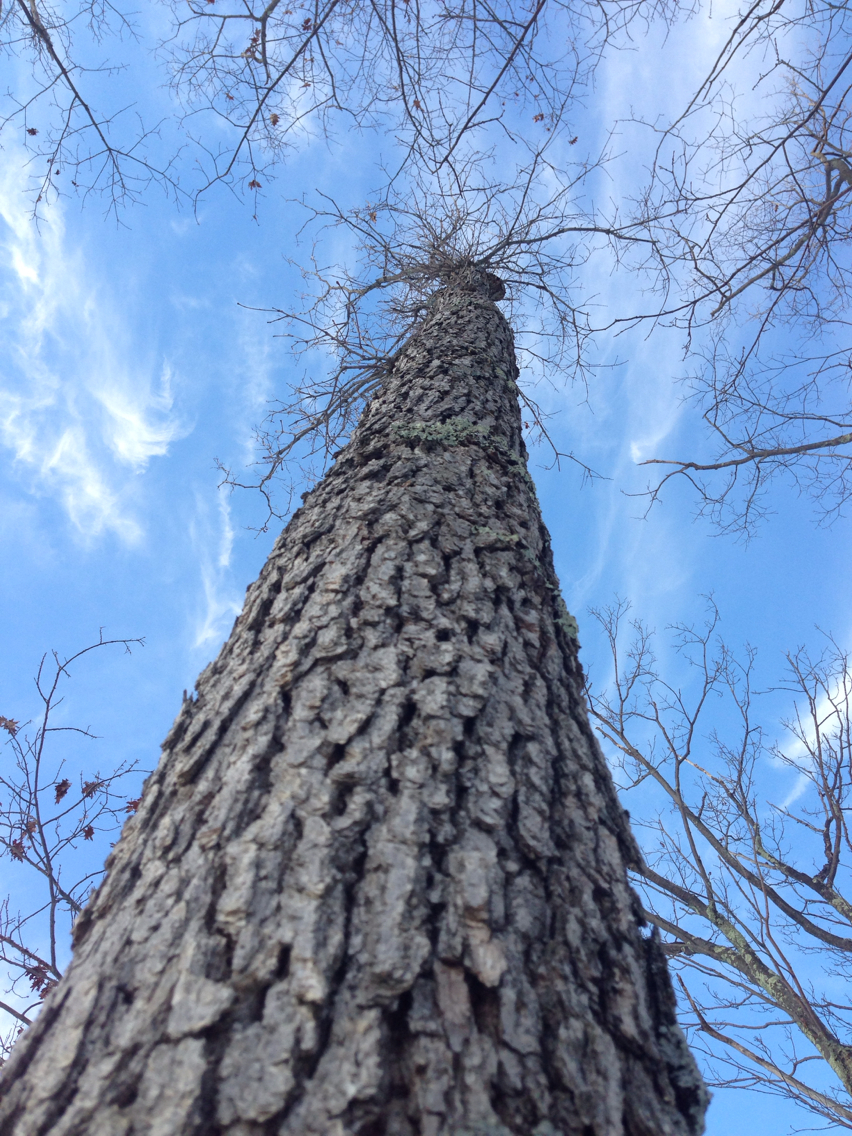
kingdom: Plantae
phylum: Tracheophyta
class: Magnoliopsida
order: Fagales
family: Fagaceae
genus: Quercus
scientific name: Quercus alba
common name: White oak
